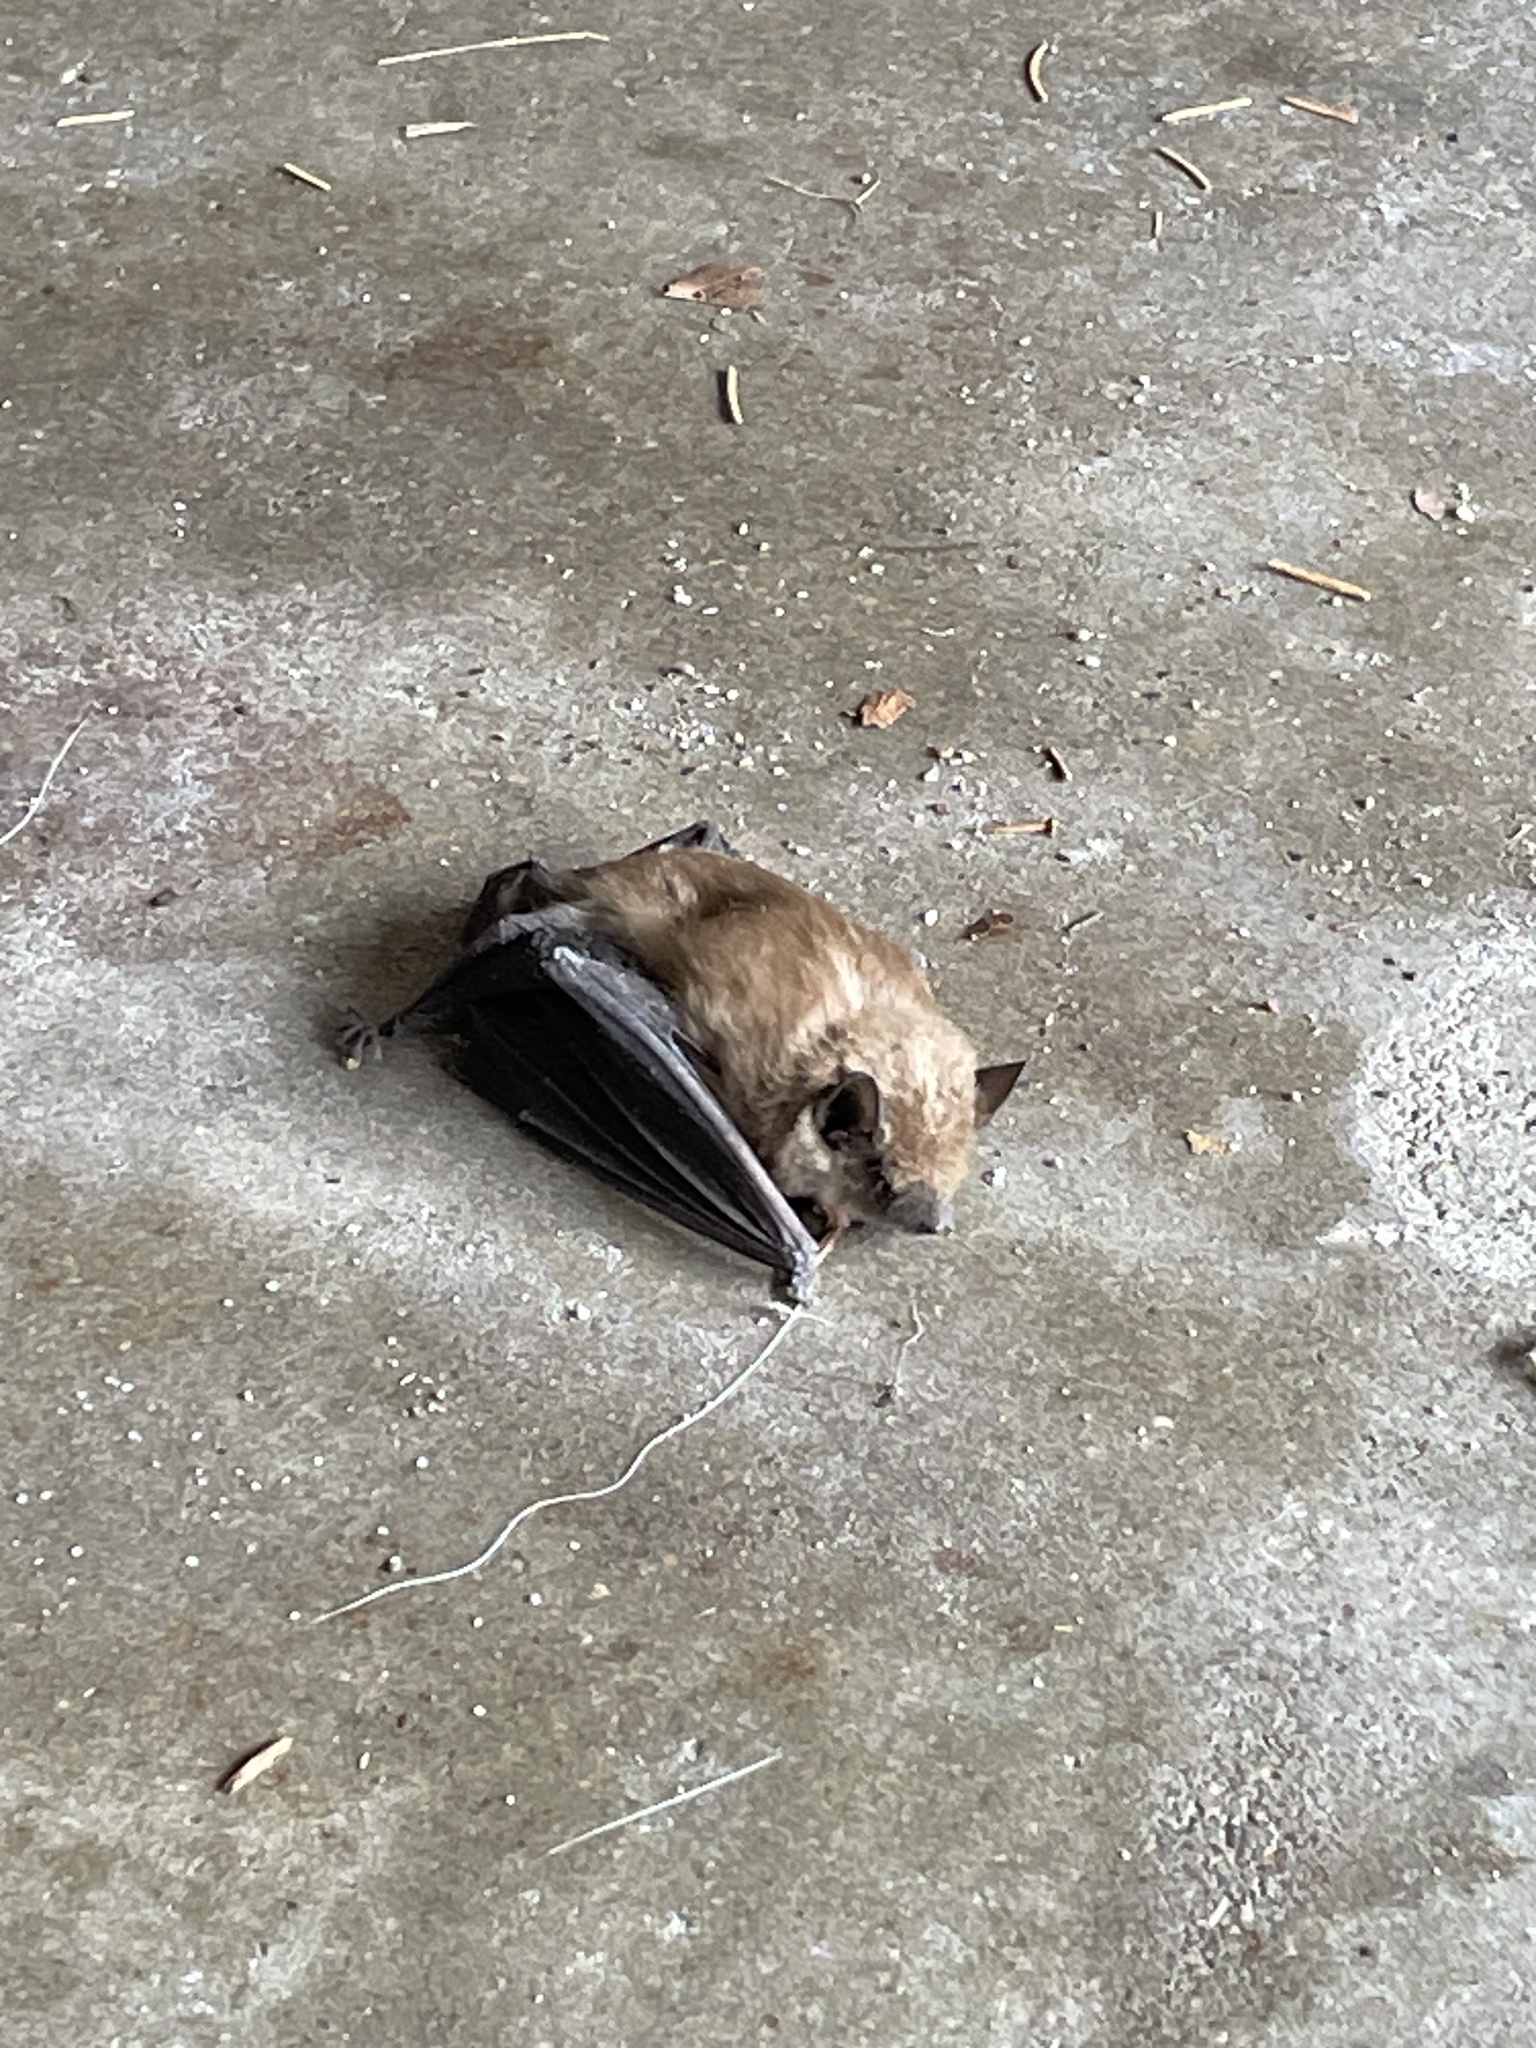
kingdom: Animalia
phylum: Chordata
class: Mammalia
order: Chiroptera
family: Vespertilionidae
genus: Eptesicus
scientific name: Eptesicus fuscus
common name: Big brown bat
